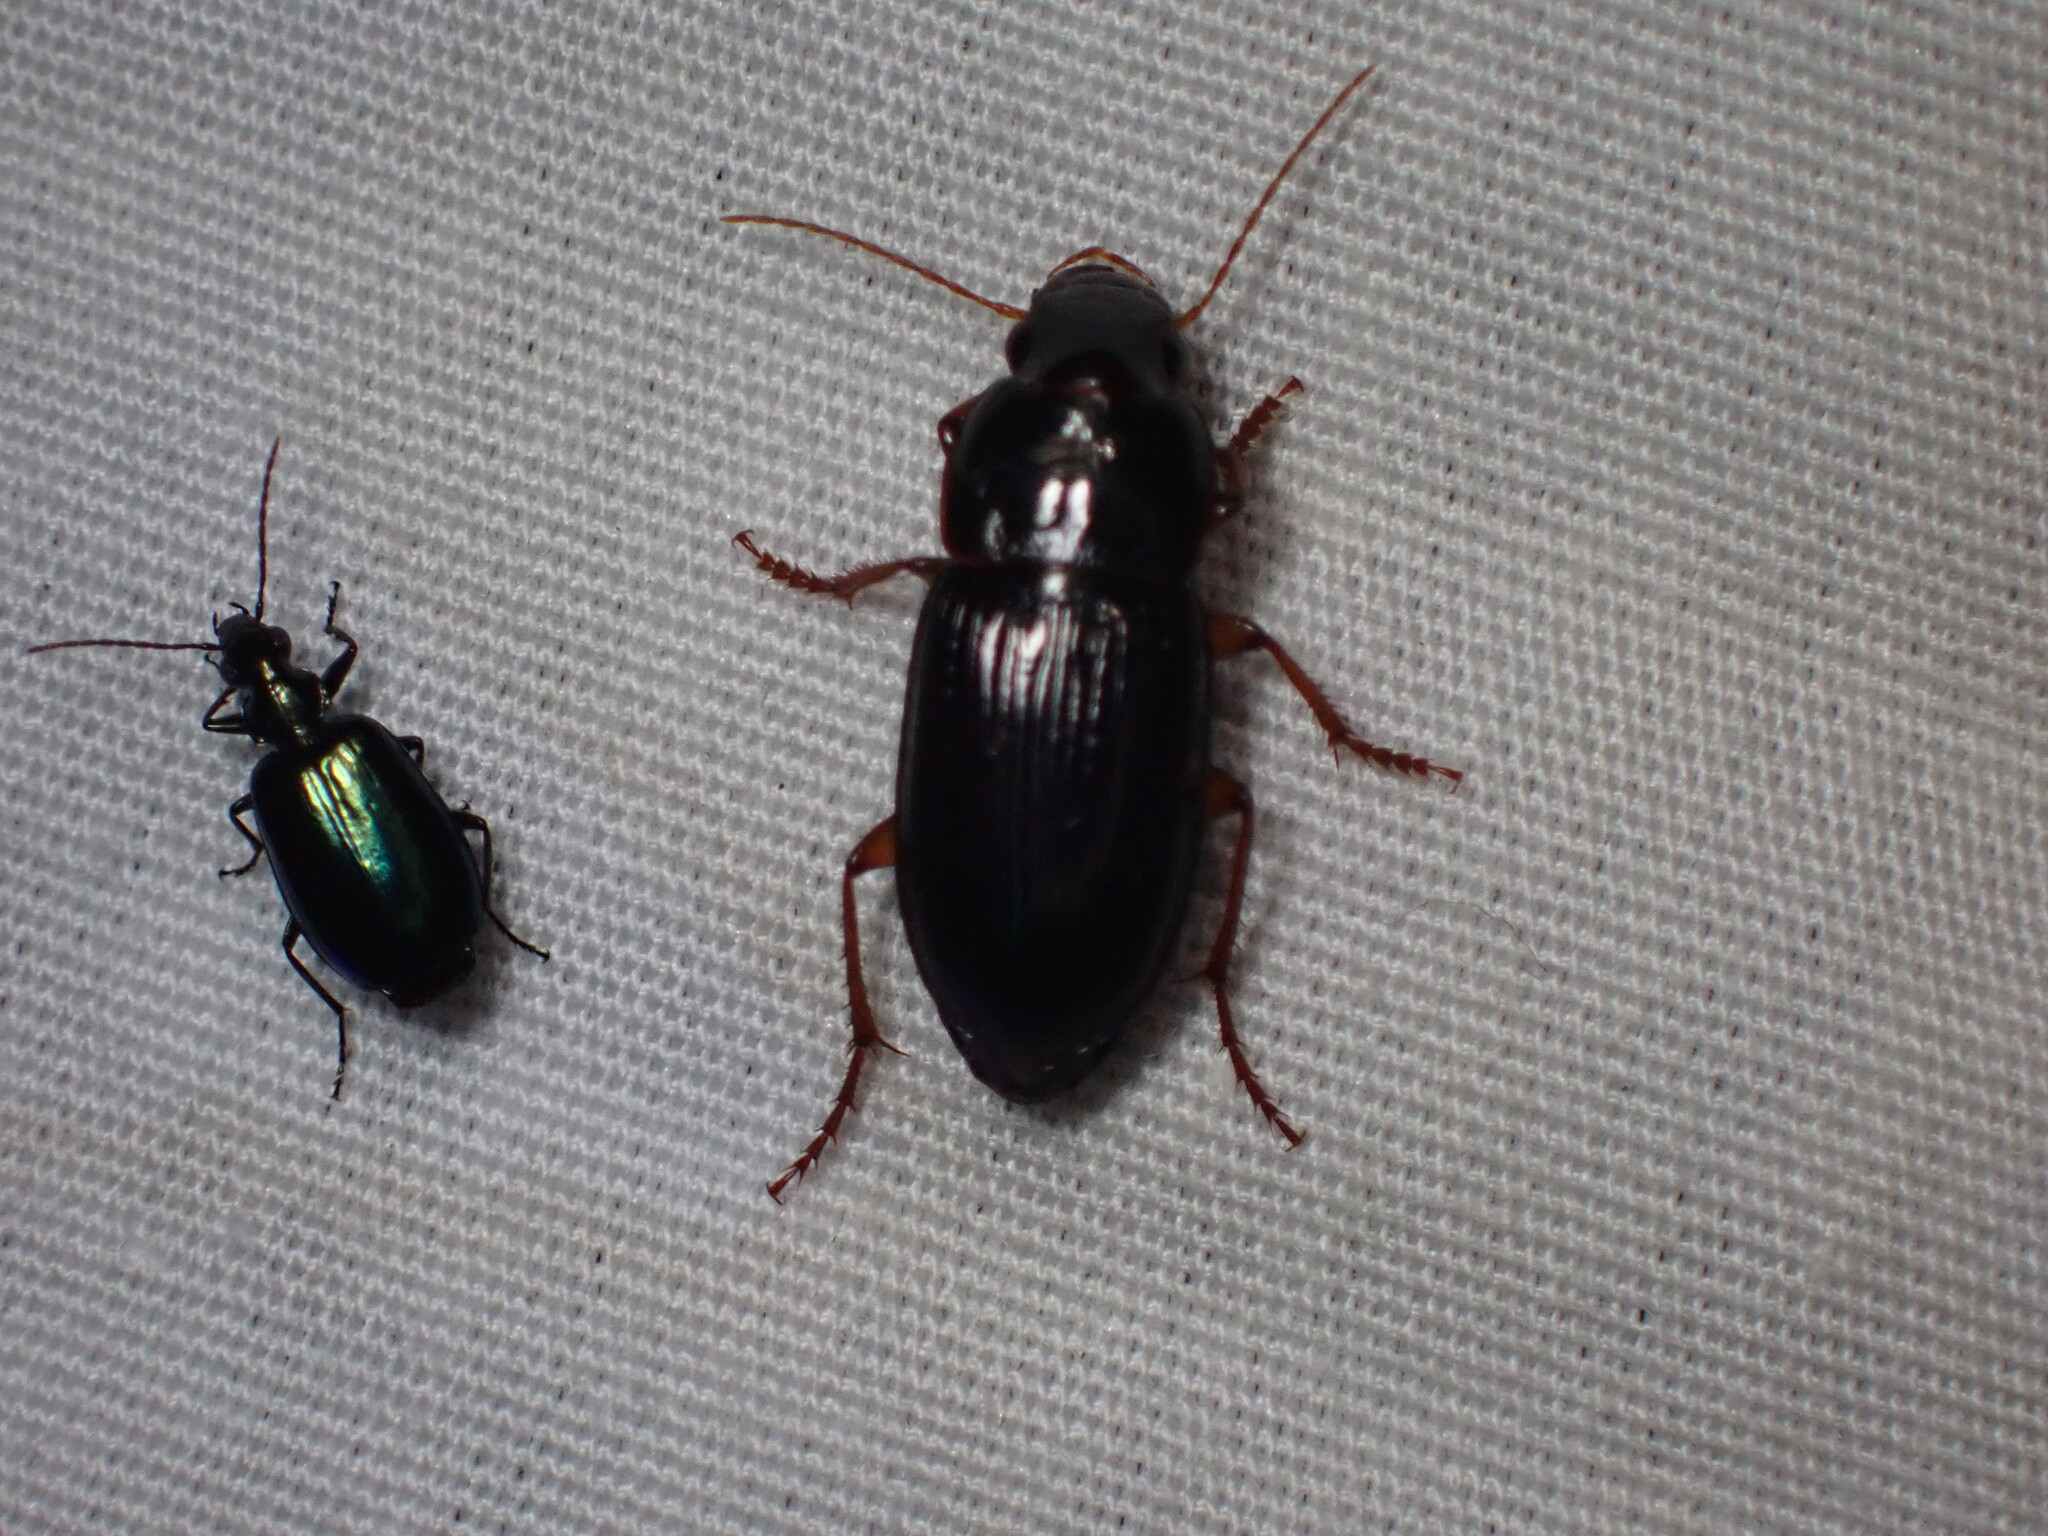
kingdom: Animalia
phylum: Arthropoda
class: Insecta
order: Coleoptera
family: Carabidae
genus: Lebia
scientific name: Lebia viridis
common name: Flower lebia beetle
